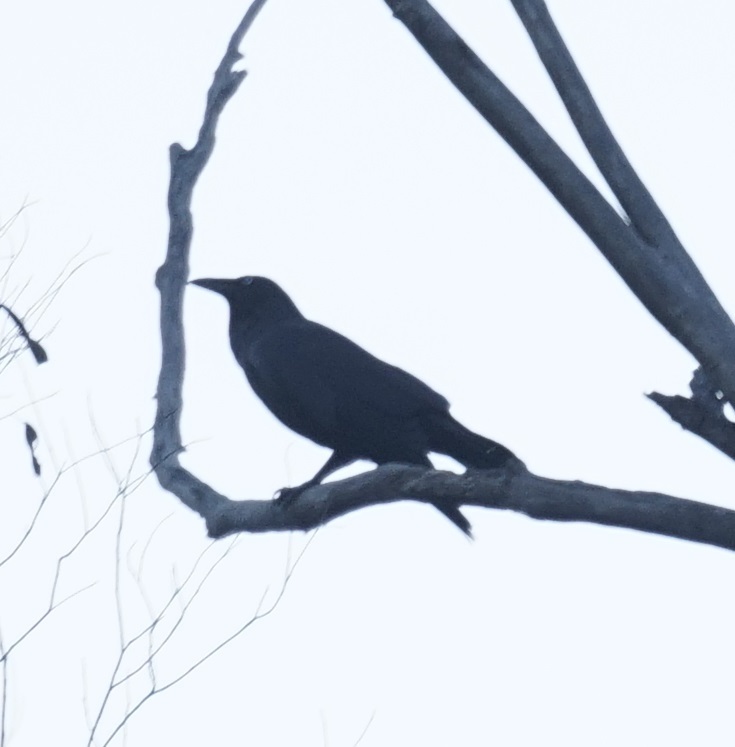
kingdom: Animalia
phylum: Chordata
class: Aves
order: Passeriformes
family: Corvidae
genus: Corvus
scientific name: Corvus coronoides
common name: Australian raven
